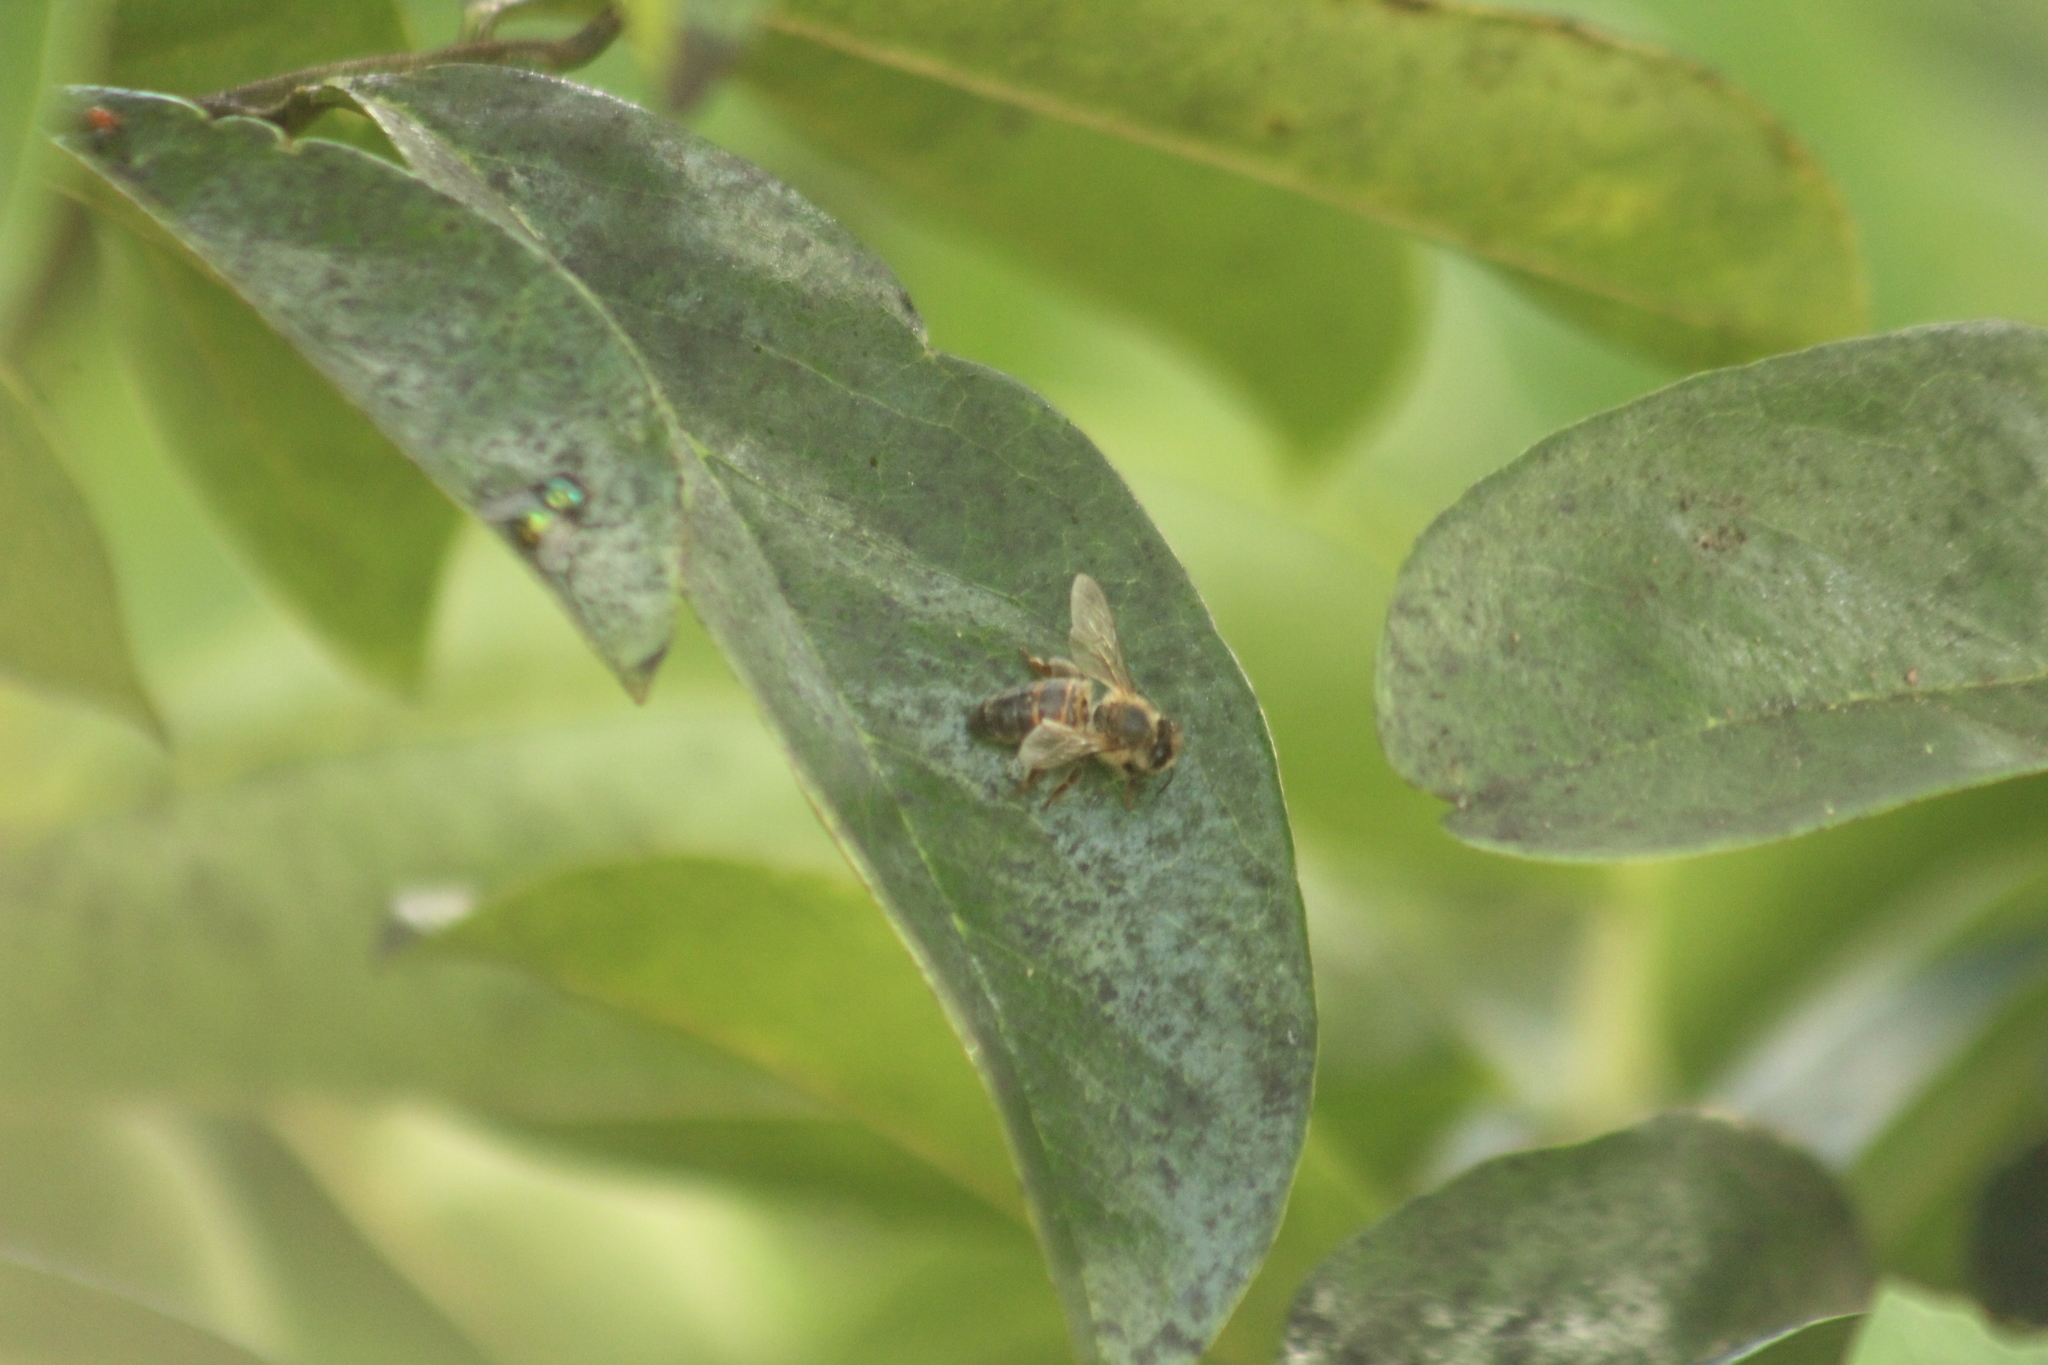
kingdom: Animalia
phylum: Arthropoda
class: Insecta
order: Hymenoptera
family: Apidae
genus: Apis
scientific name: Apis mellifera
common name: Honey bee
